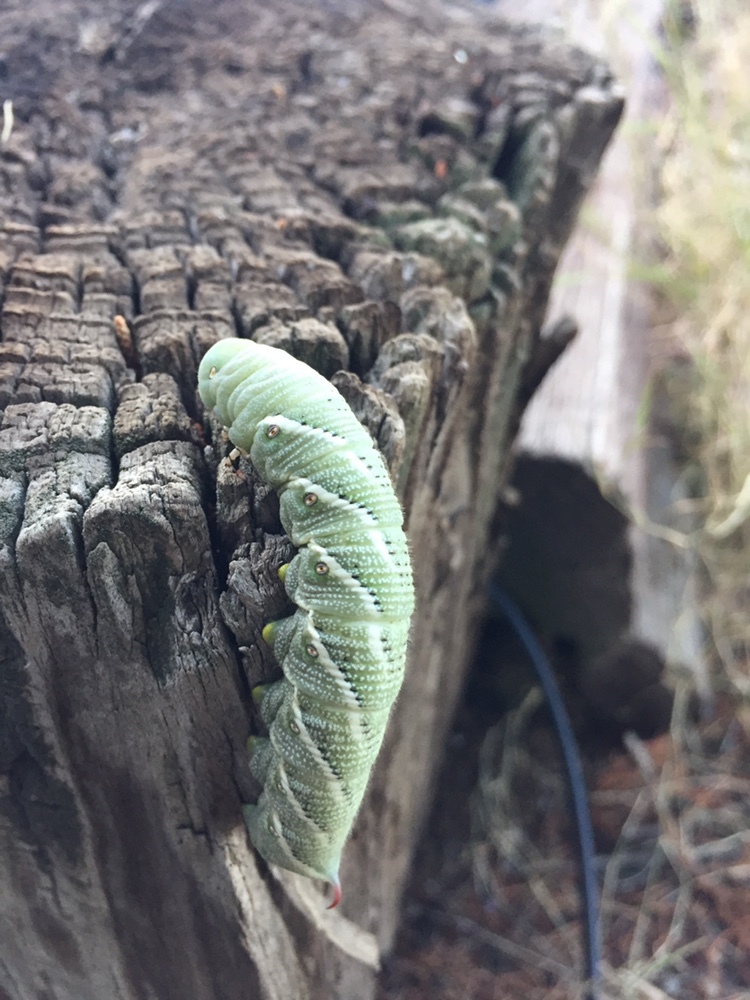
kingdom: Animalia
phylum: Arthropoda
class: Insecta
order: Lepidoptera
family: Sphingidae
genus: Manduca
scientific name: Manduca sexta
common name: Carolina sphinx
